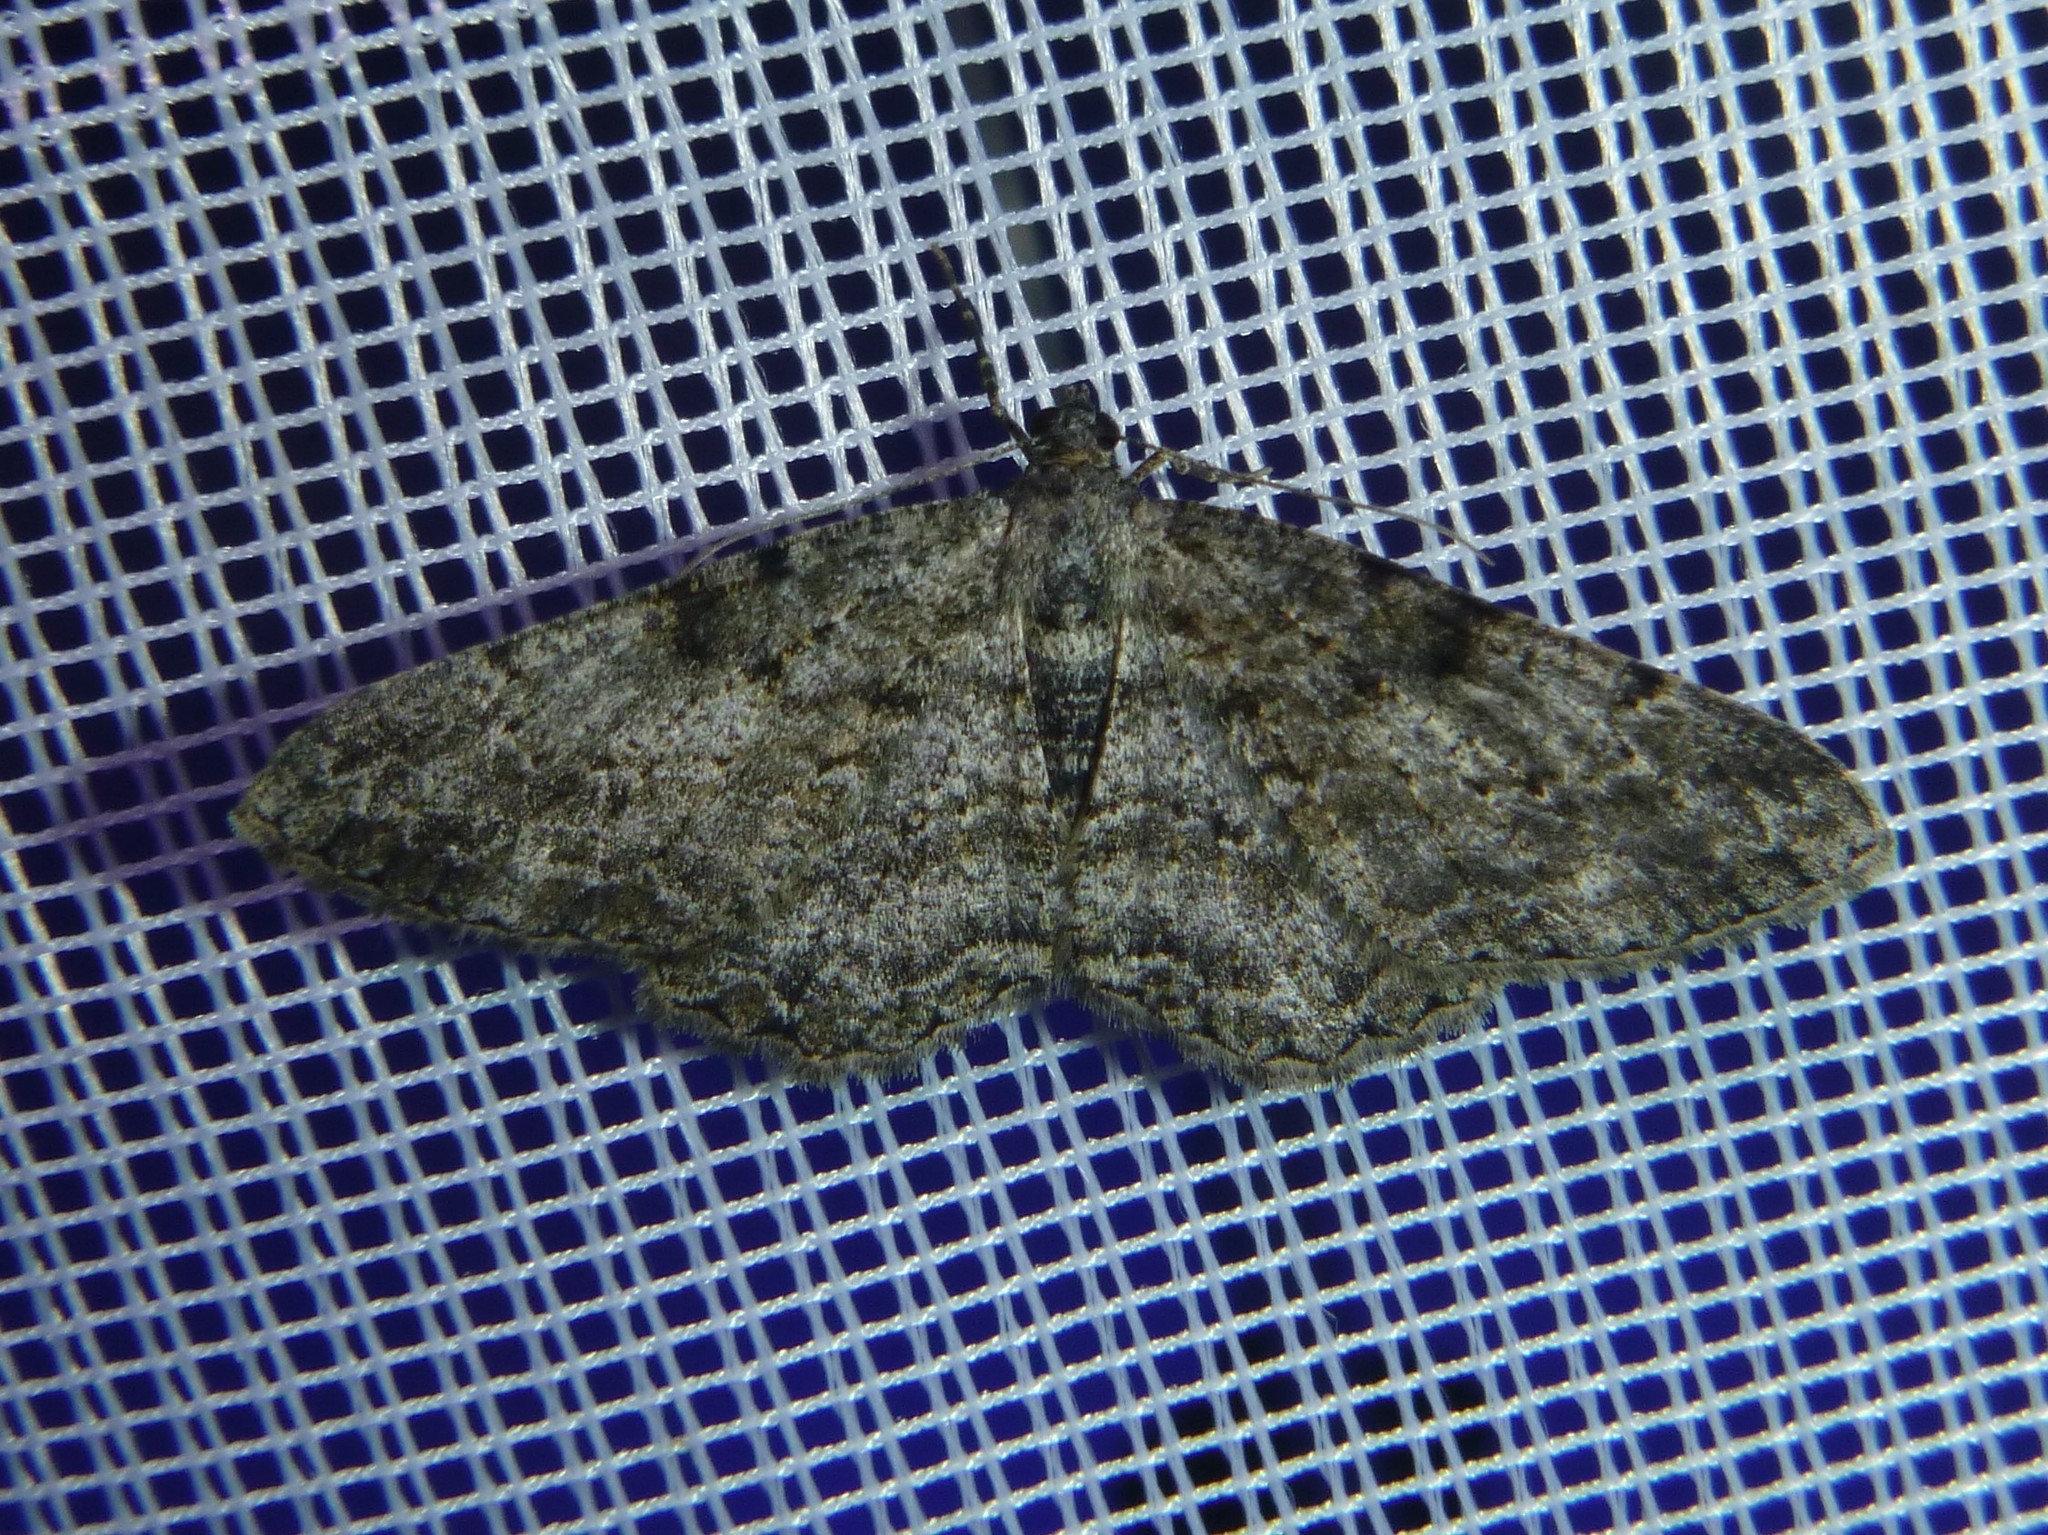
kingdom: Animalia
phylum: Arthropoda
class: Insecta
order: Lepidoptera
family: Geometridae
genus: Peribatodes
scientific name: Peribatodes rhomboidaria
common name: Willow beauty
